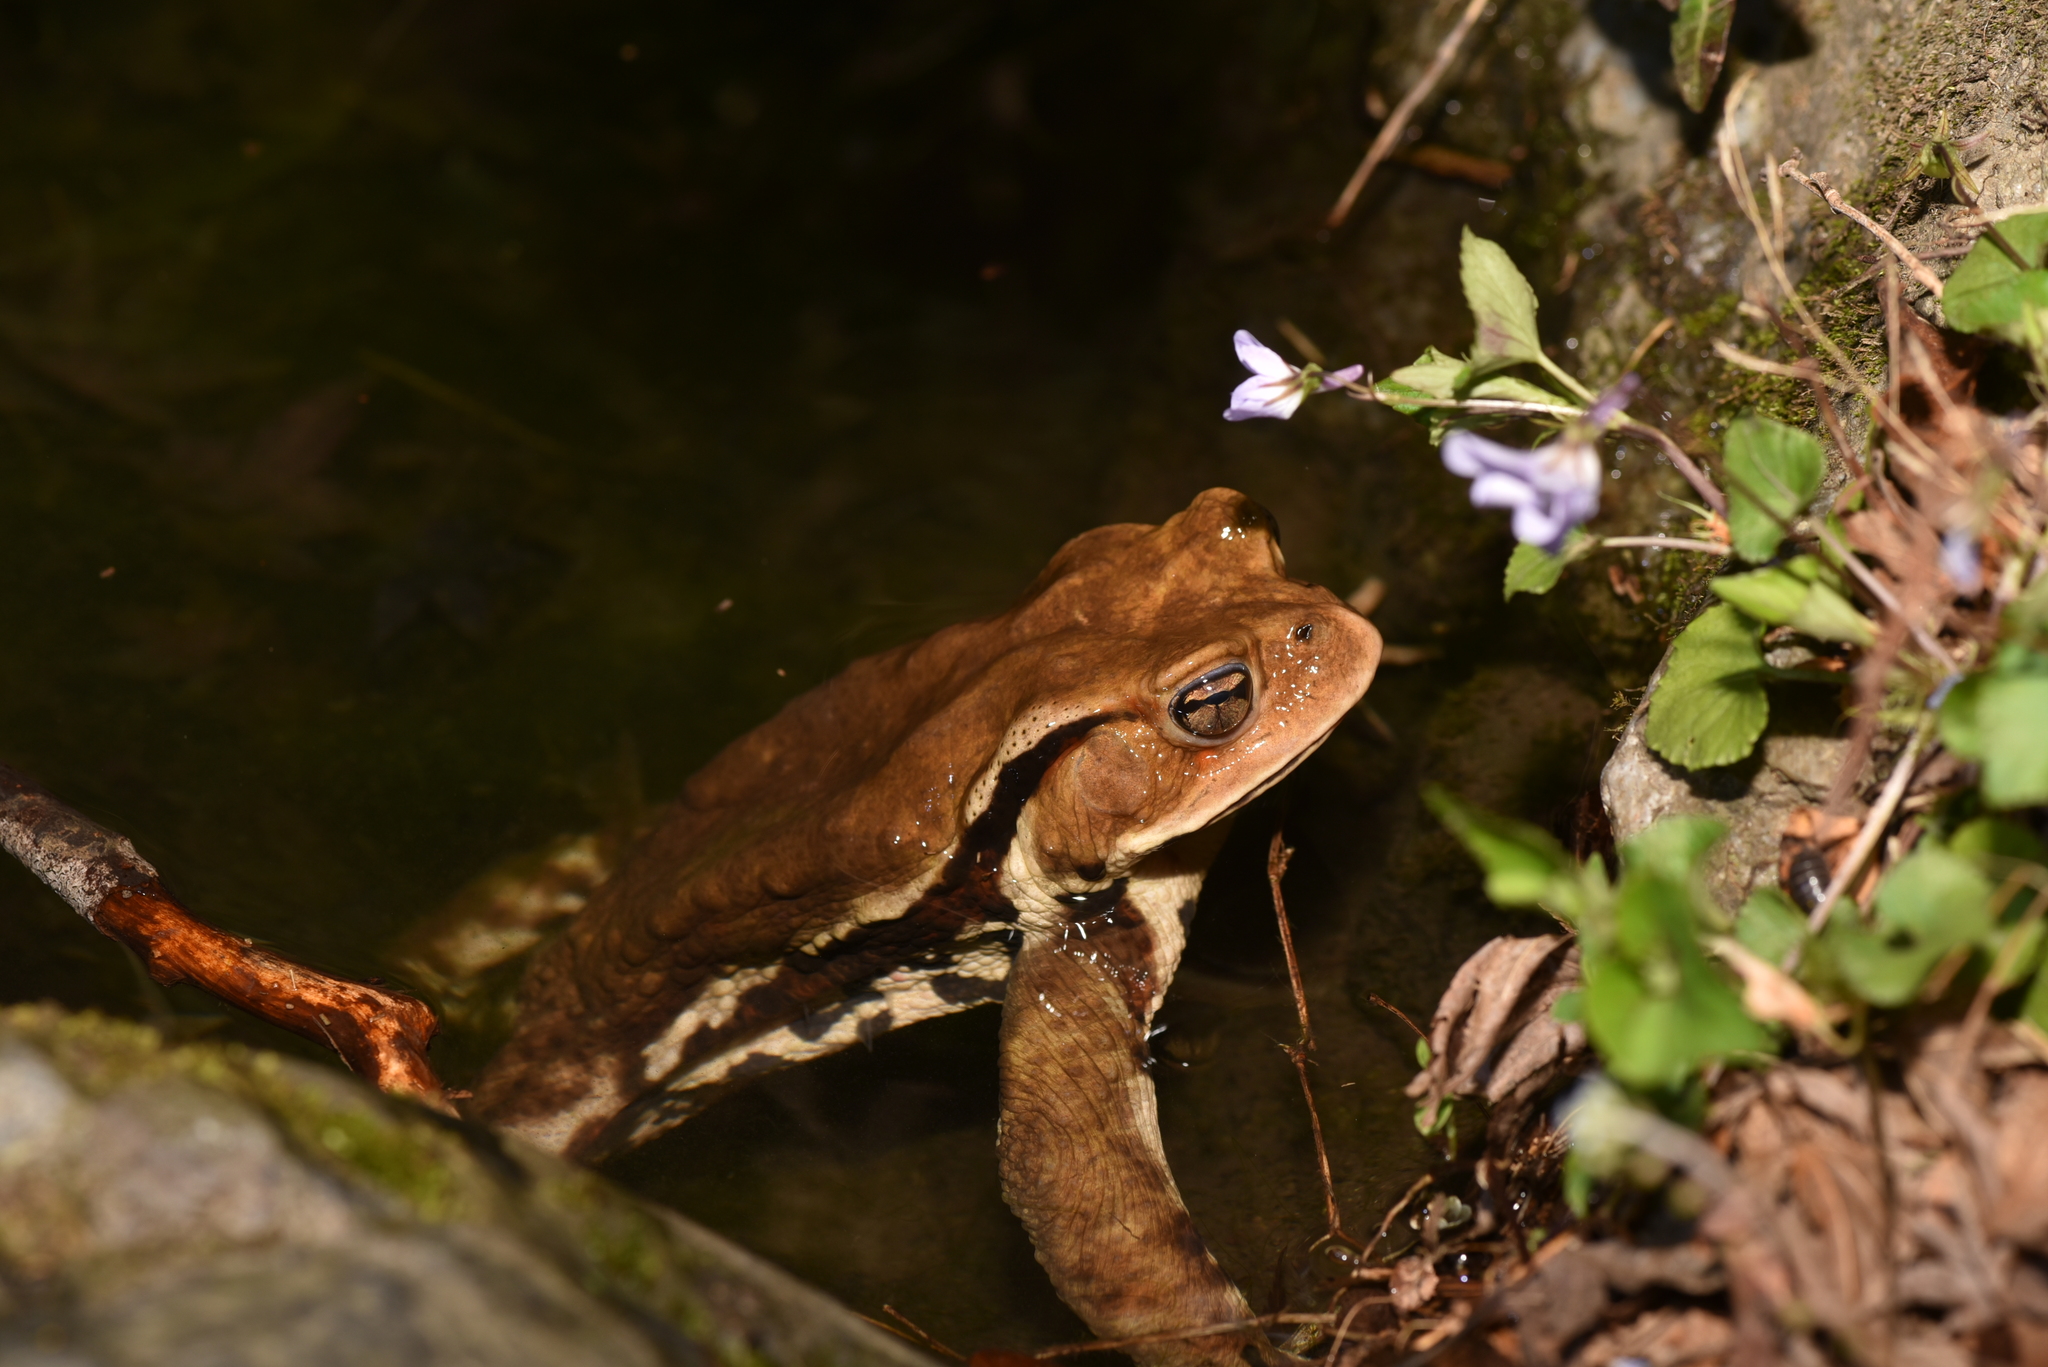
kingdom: Animalia
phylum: Chordata
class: Amphibia
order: Anura
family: Bufonidae
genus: Bufo
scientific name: Bufo japonicus
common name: Japanese common toad
